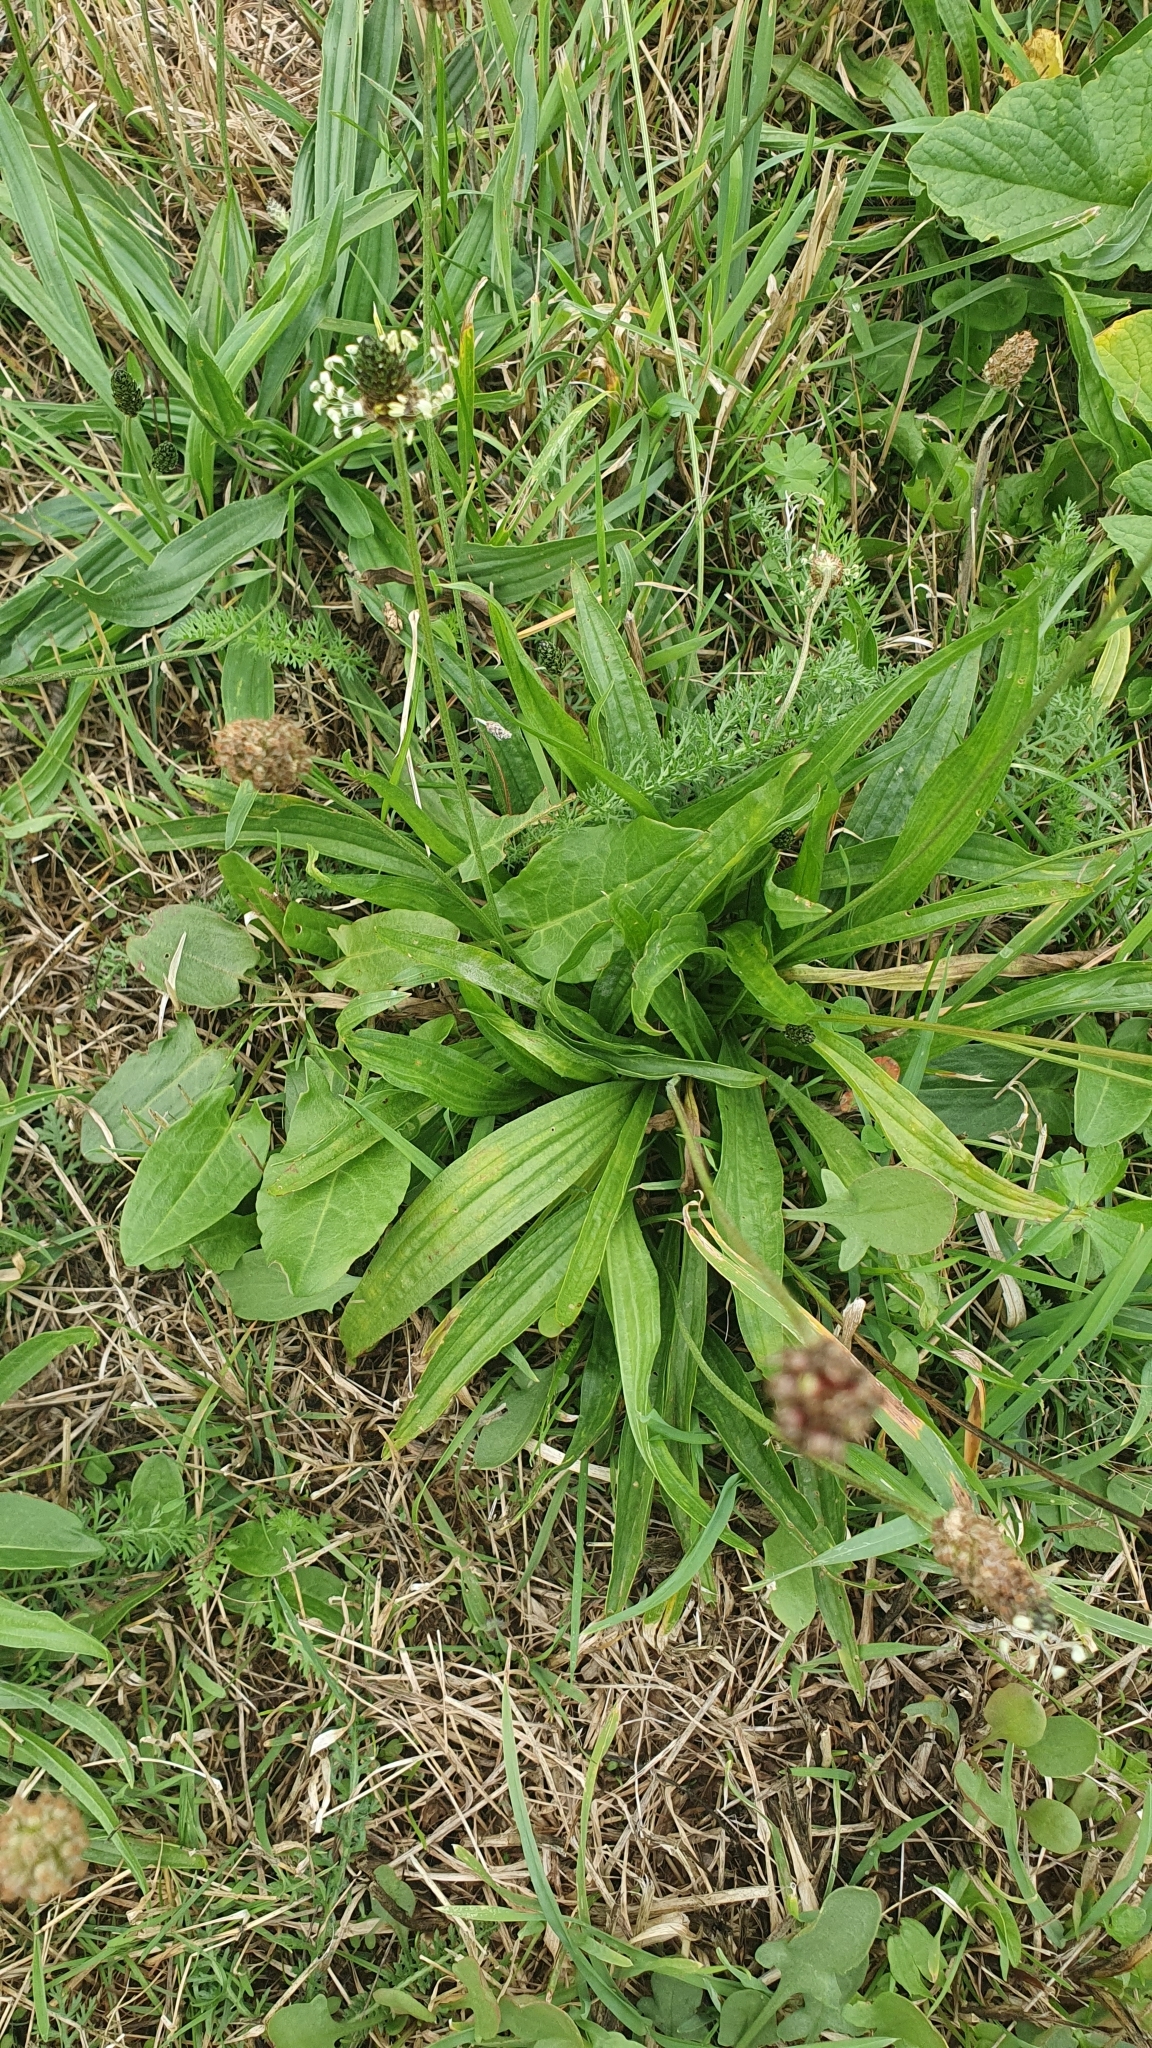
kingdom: Plantae
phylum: Tracheophyta
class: Magnoliopsida
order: Lamiales
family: Plantaginaceae
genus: Plantago
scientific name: Plantago lanceolata
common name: Ribwort plantain
